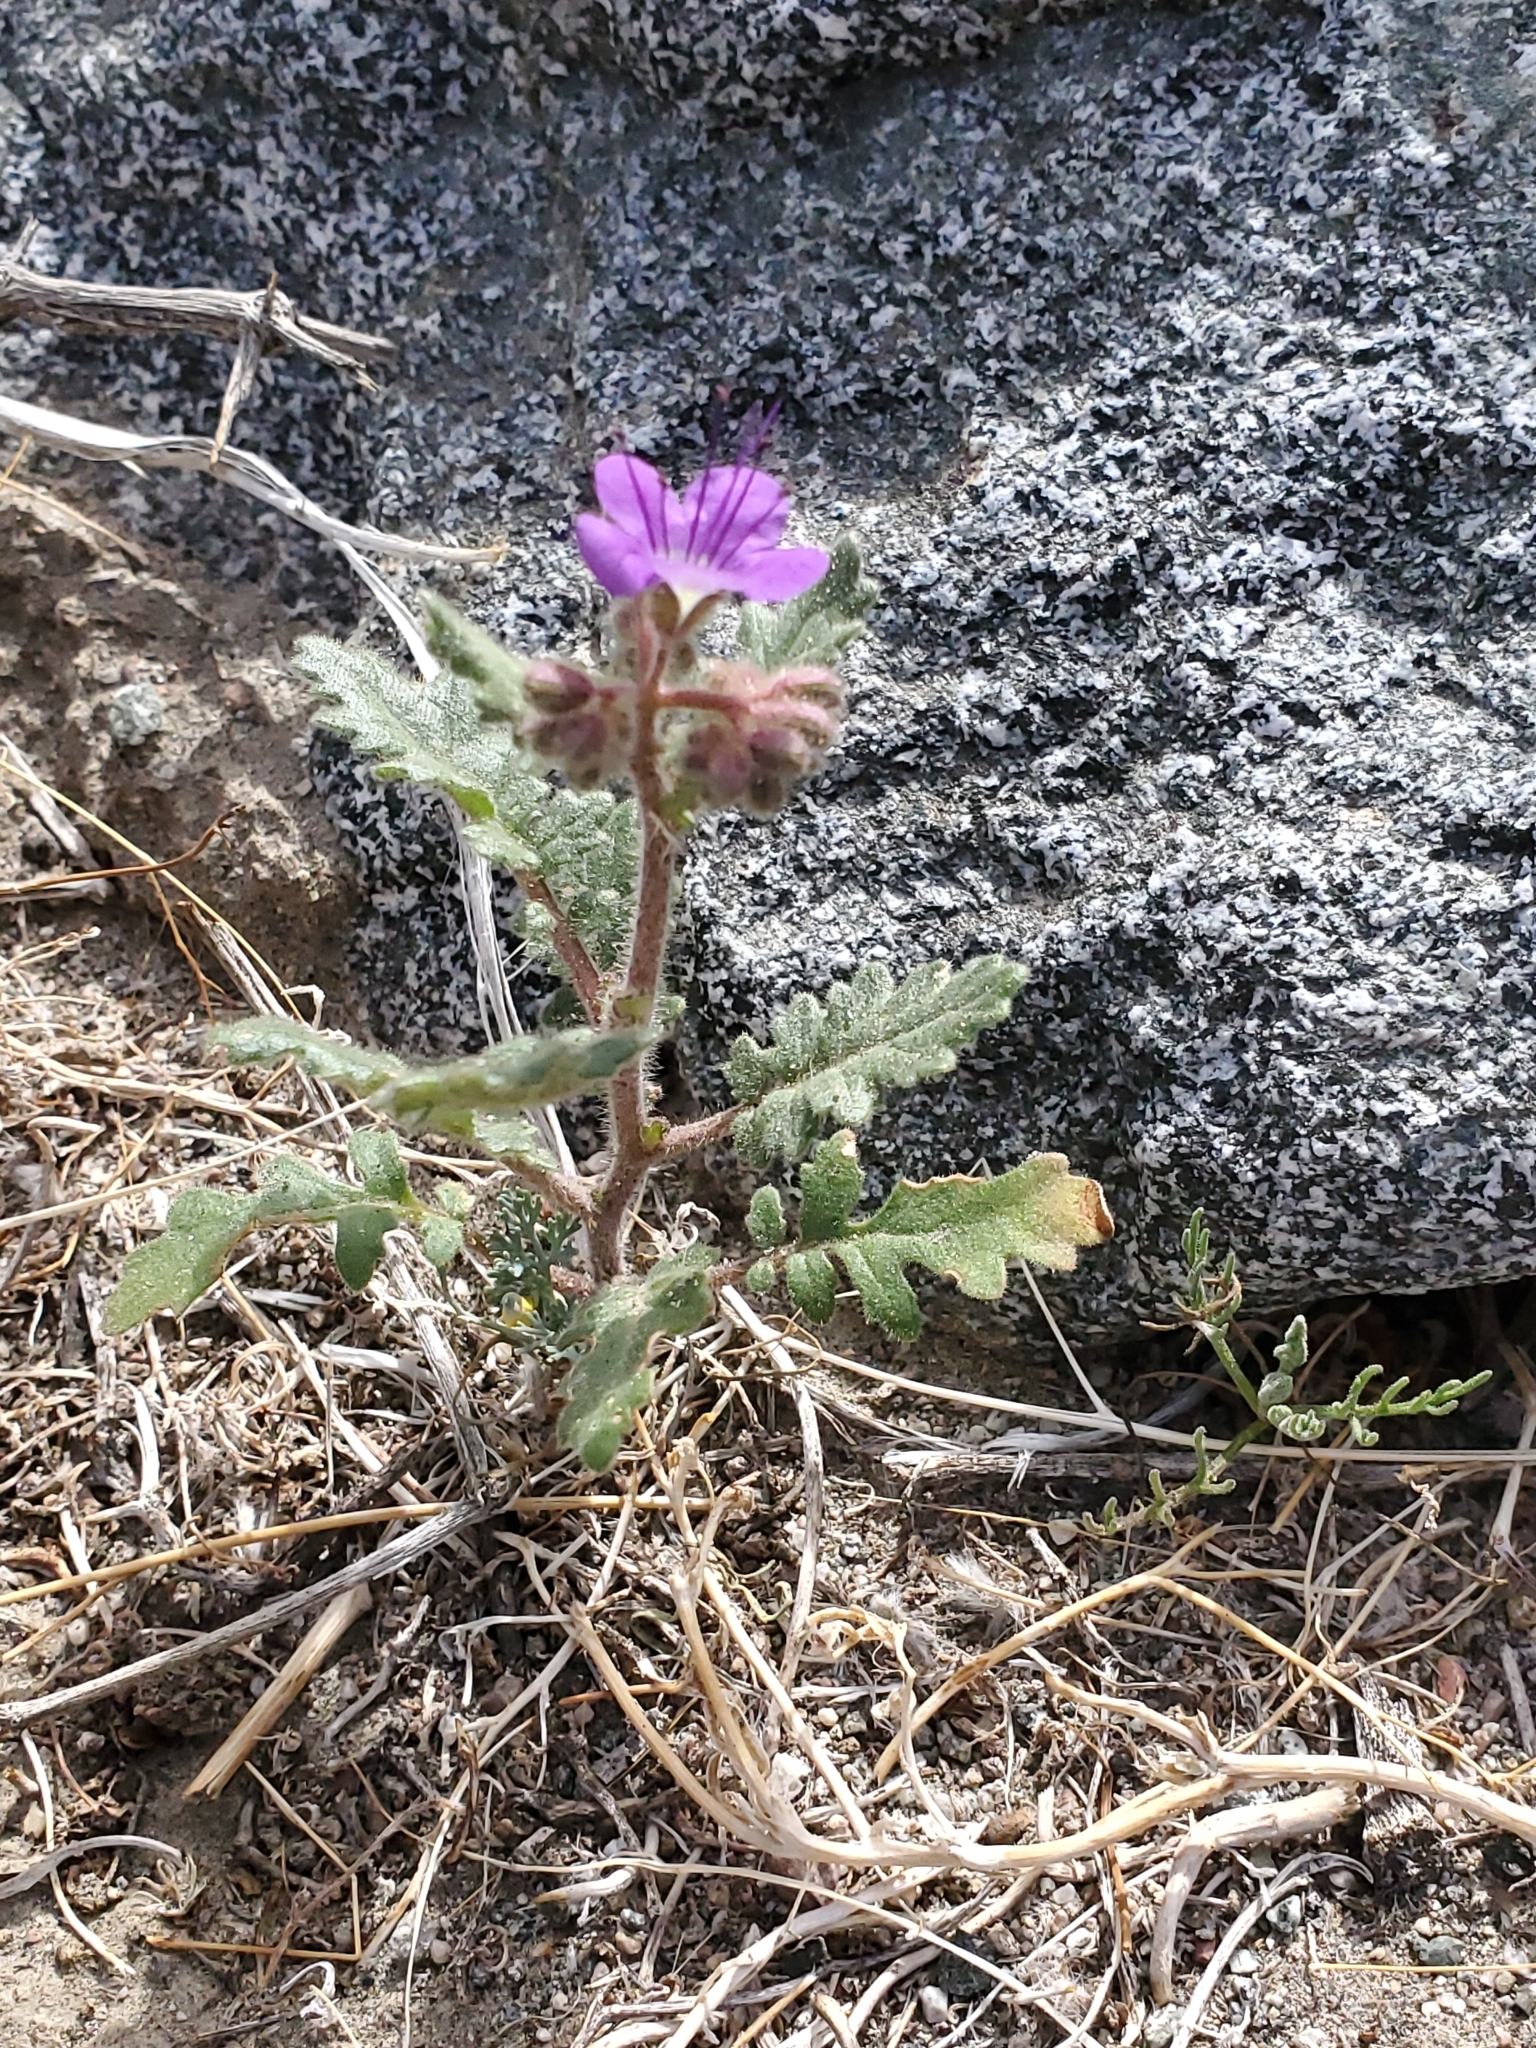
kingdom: Plantae
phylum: Tracheophyta
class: Magnoliopsida
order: Boraginales
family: Hydrophyllaceae
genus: Phacelia
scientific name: Phacelia crenulata
